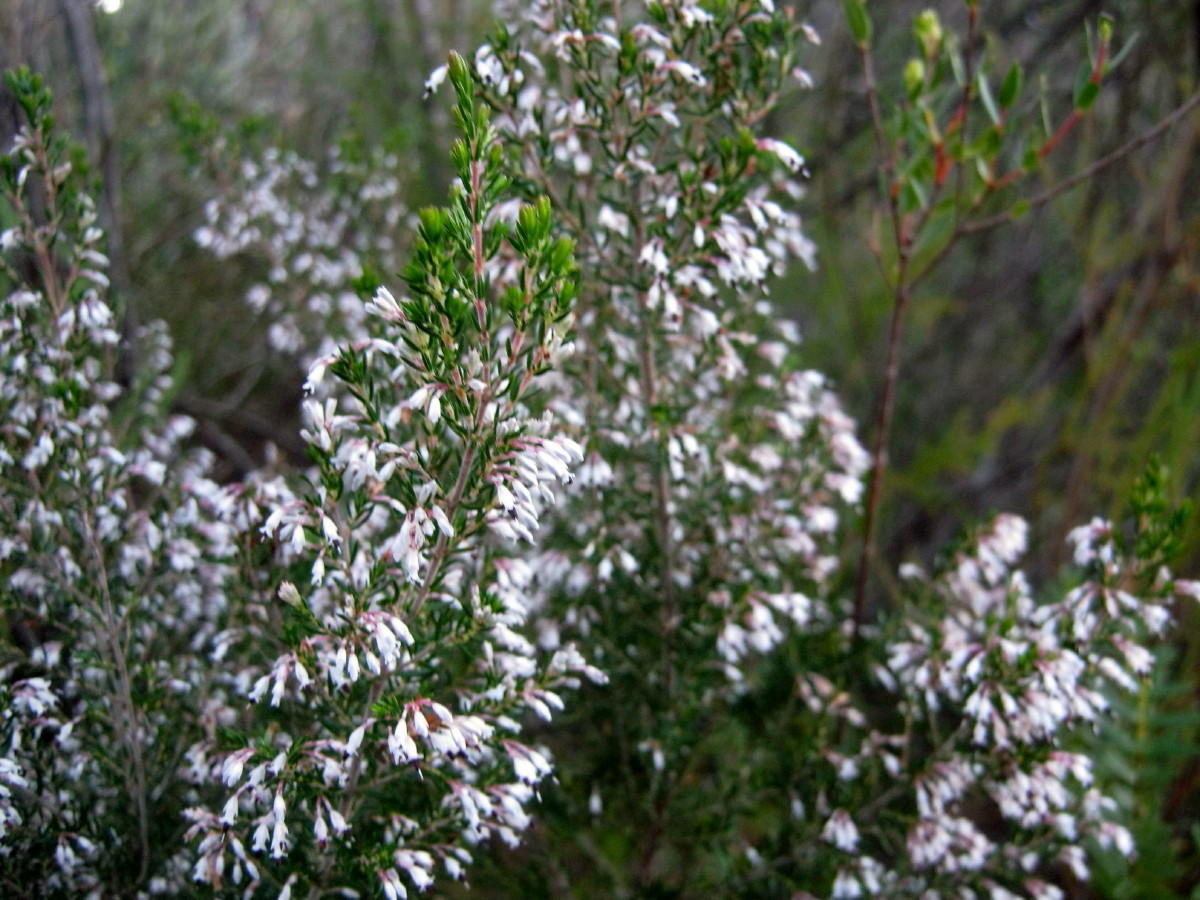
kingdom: Plantae
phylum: Tracheophyta
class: Magnoliopsida
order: Ericales
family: Ericaceae
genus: Erica
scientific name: Erica fuscescens
